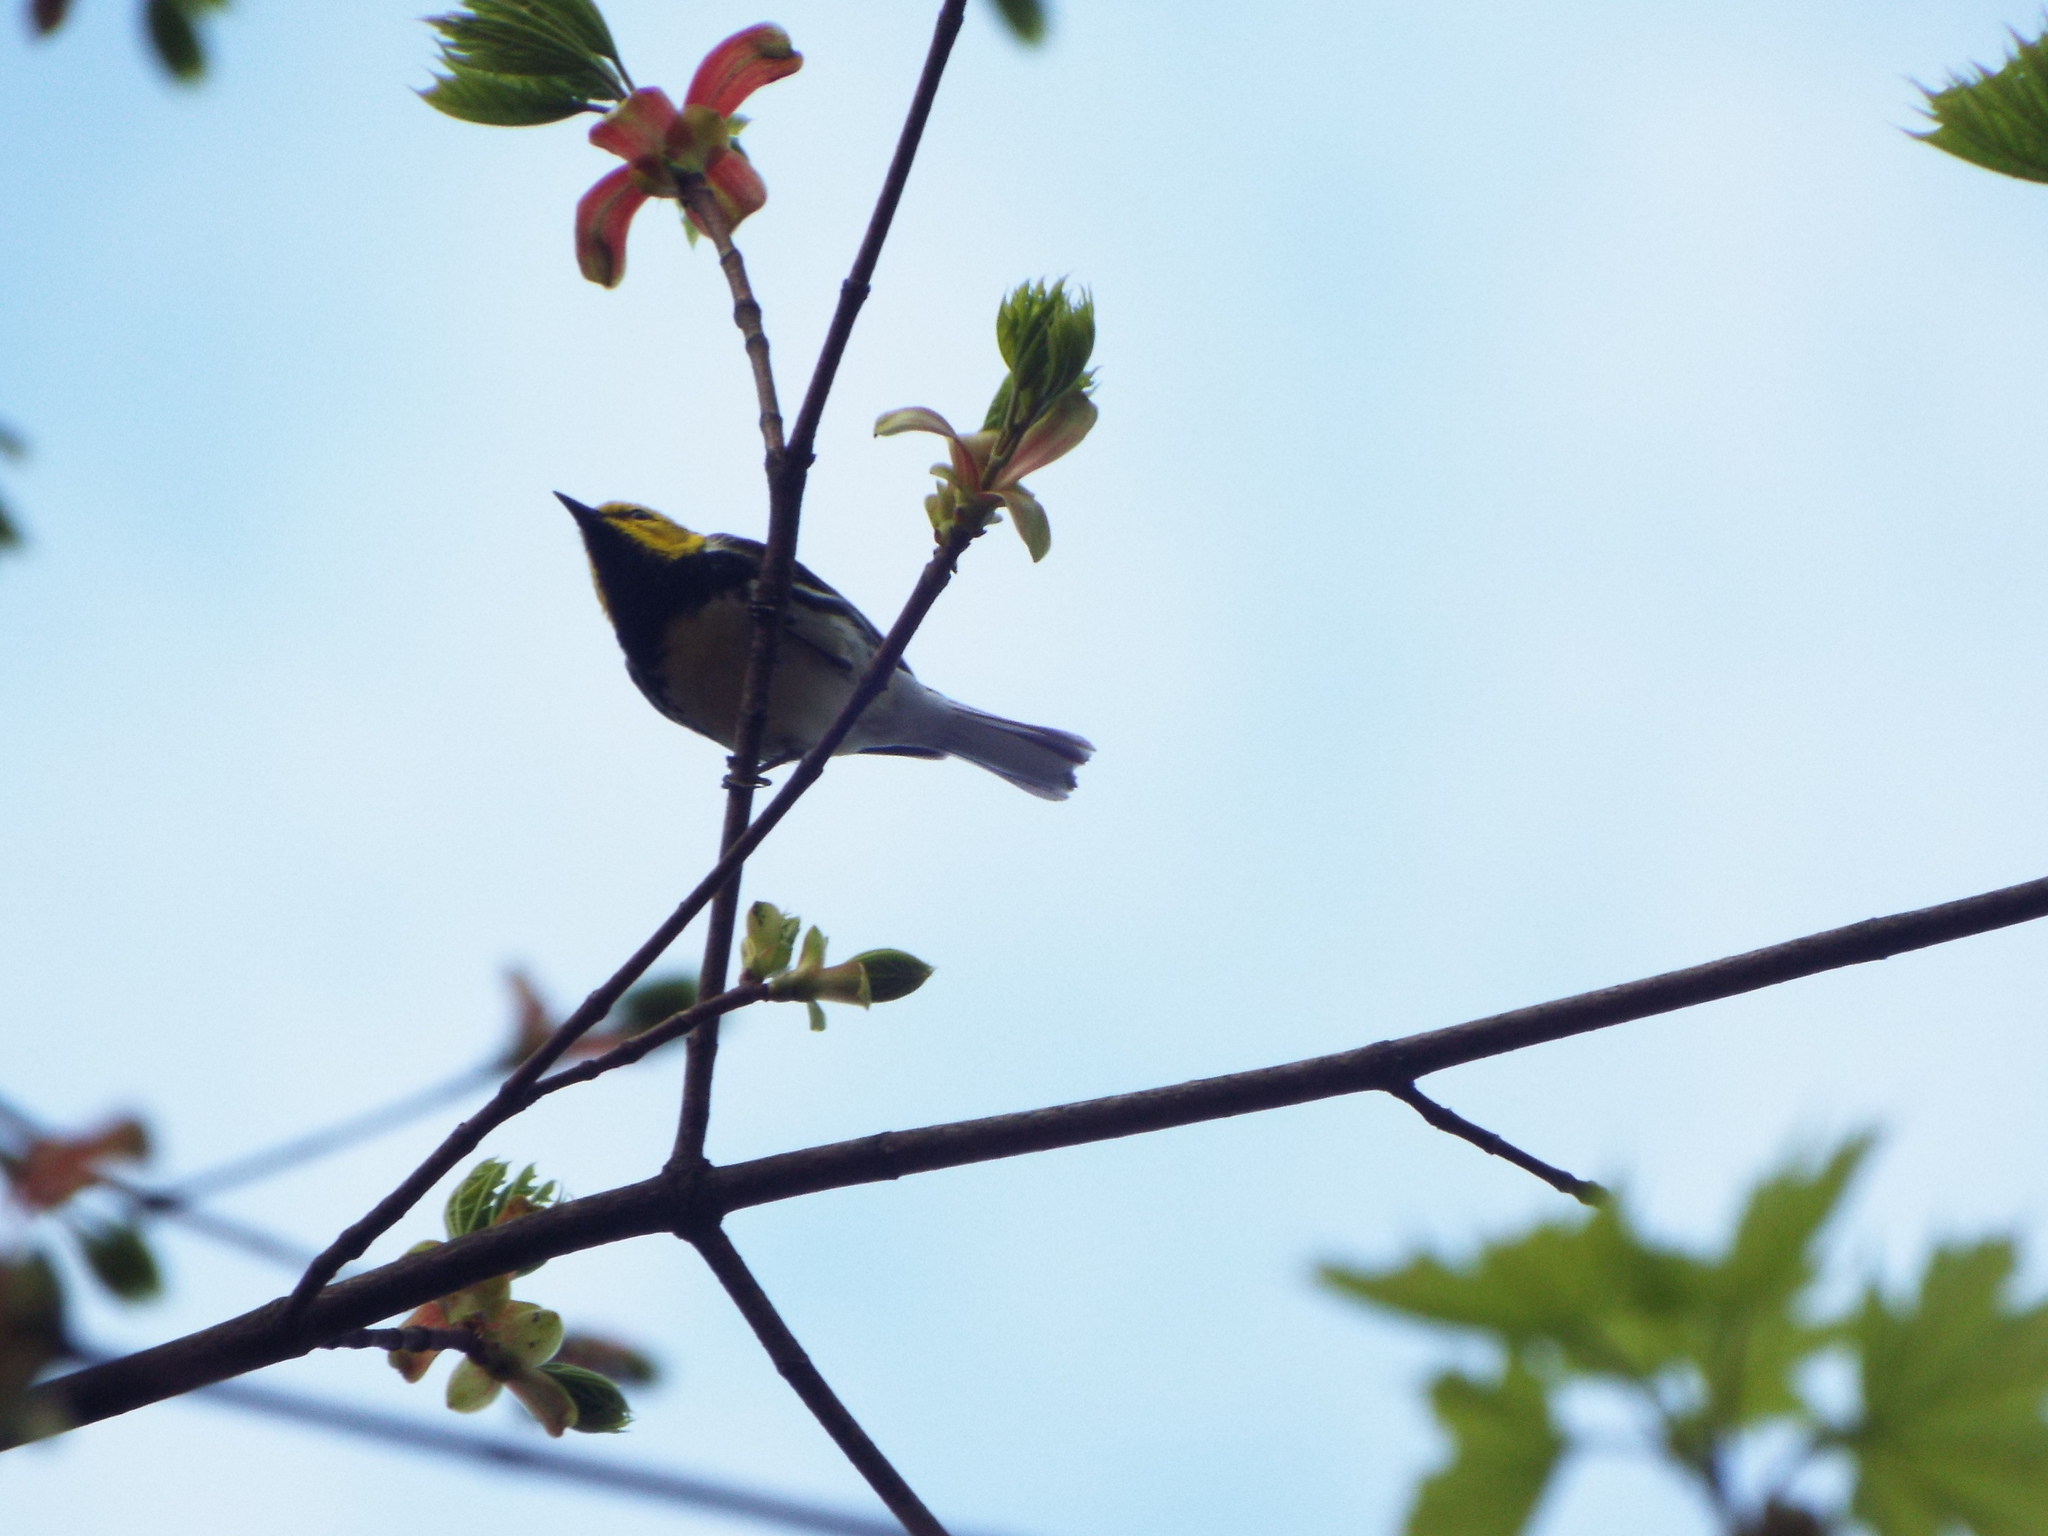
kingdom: Animalia
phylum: Chordata
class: Aves
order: Passeriformes
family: Parulidae
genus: Setophaga
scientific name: Setophaga virens
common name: Black-throated green warbler
